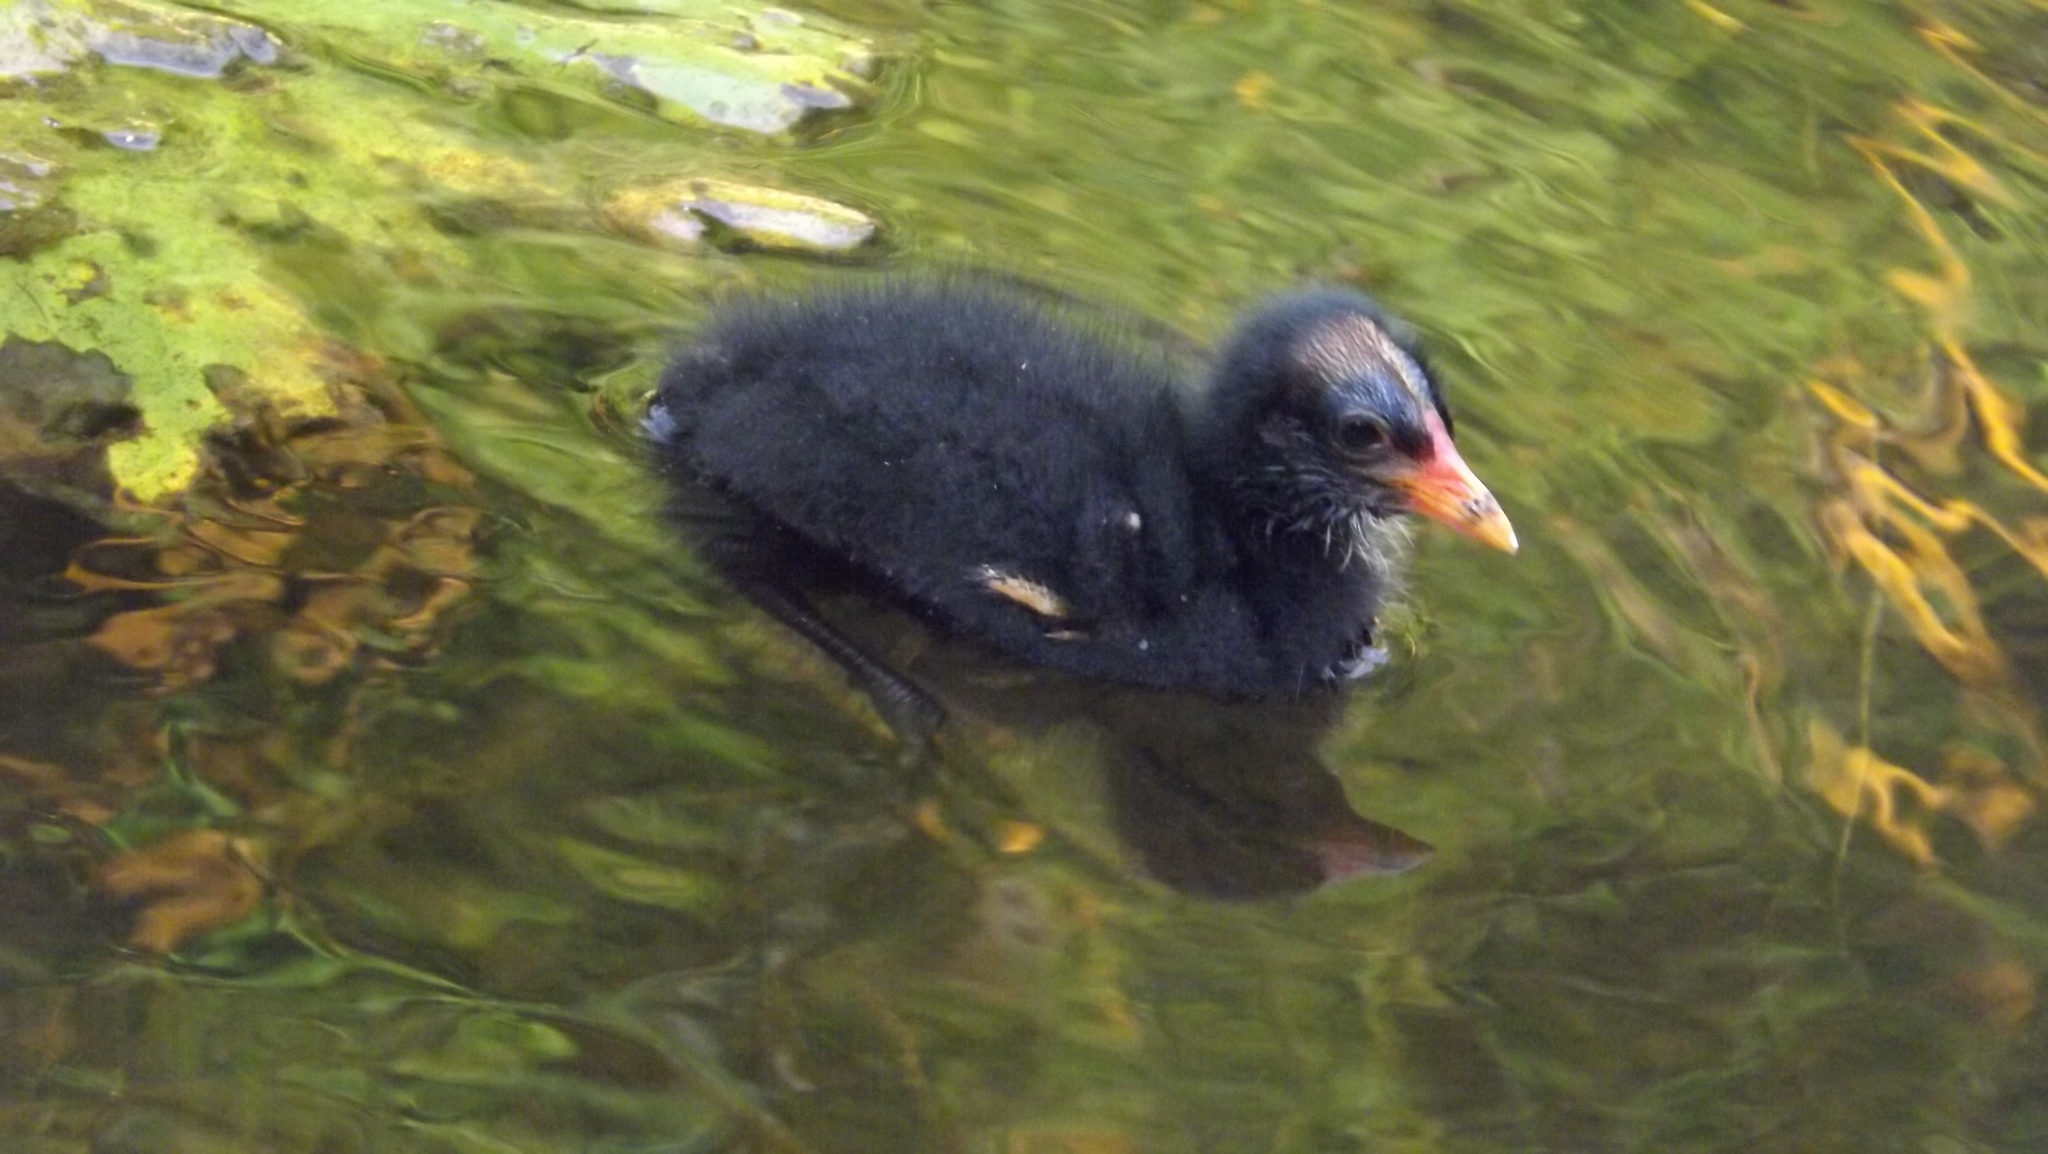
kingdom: Animalia
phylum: Chordata
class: Aves
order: Gruiformes
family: Rallidae
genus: Gallinula
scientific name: Gallinula tenebrosa
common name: Dusky moorhen
